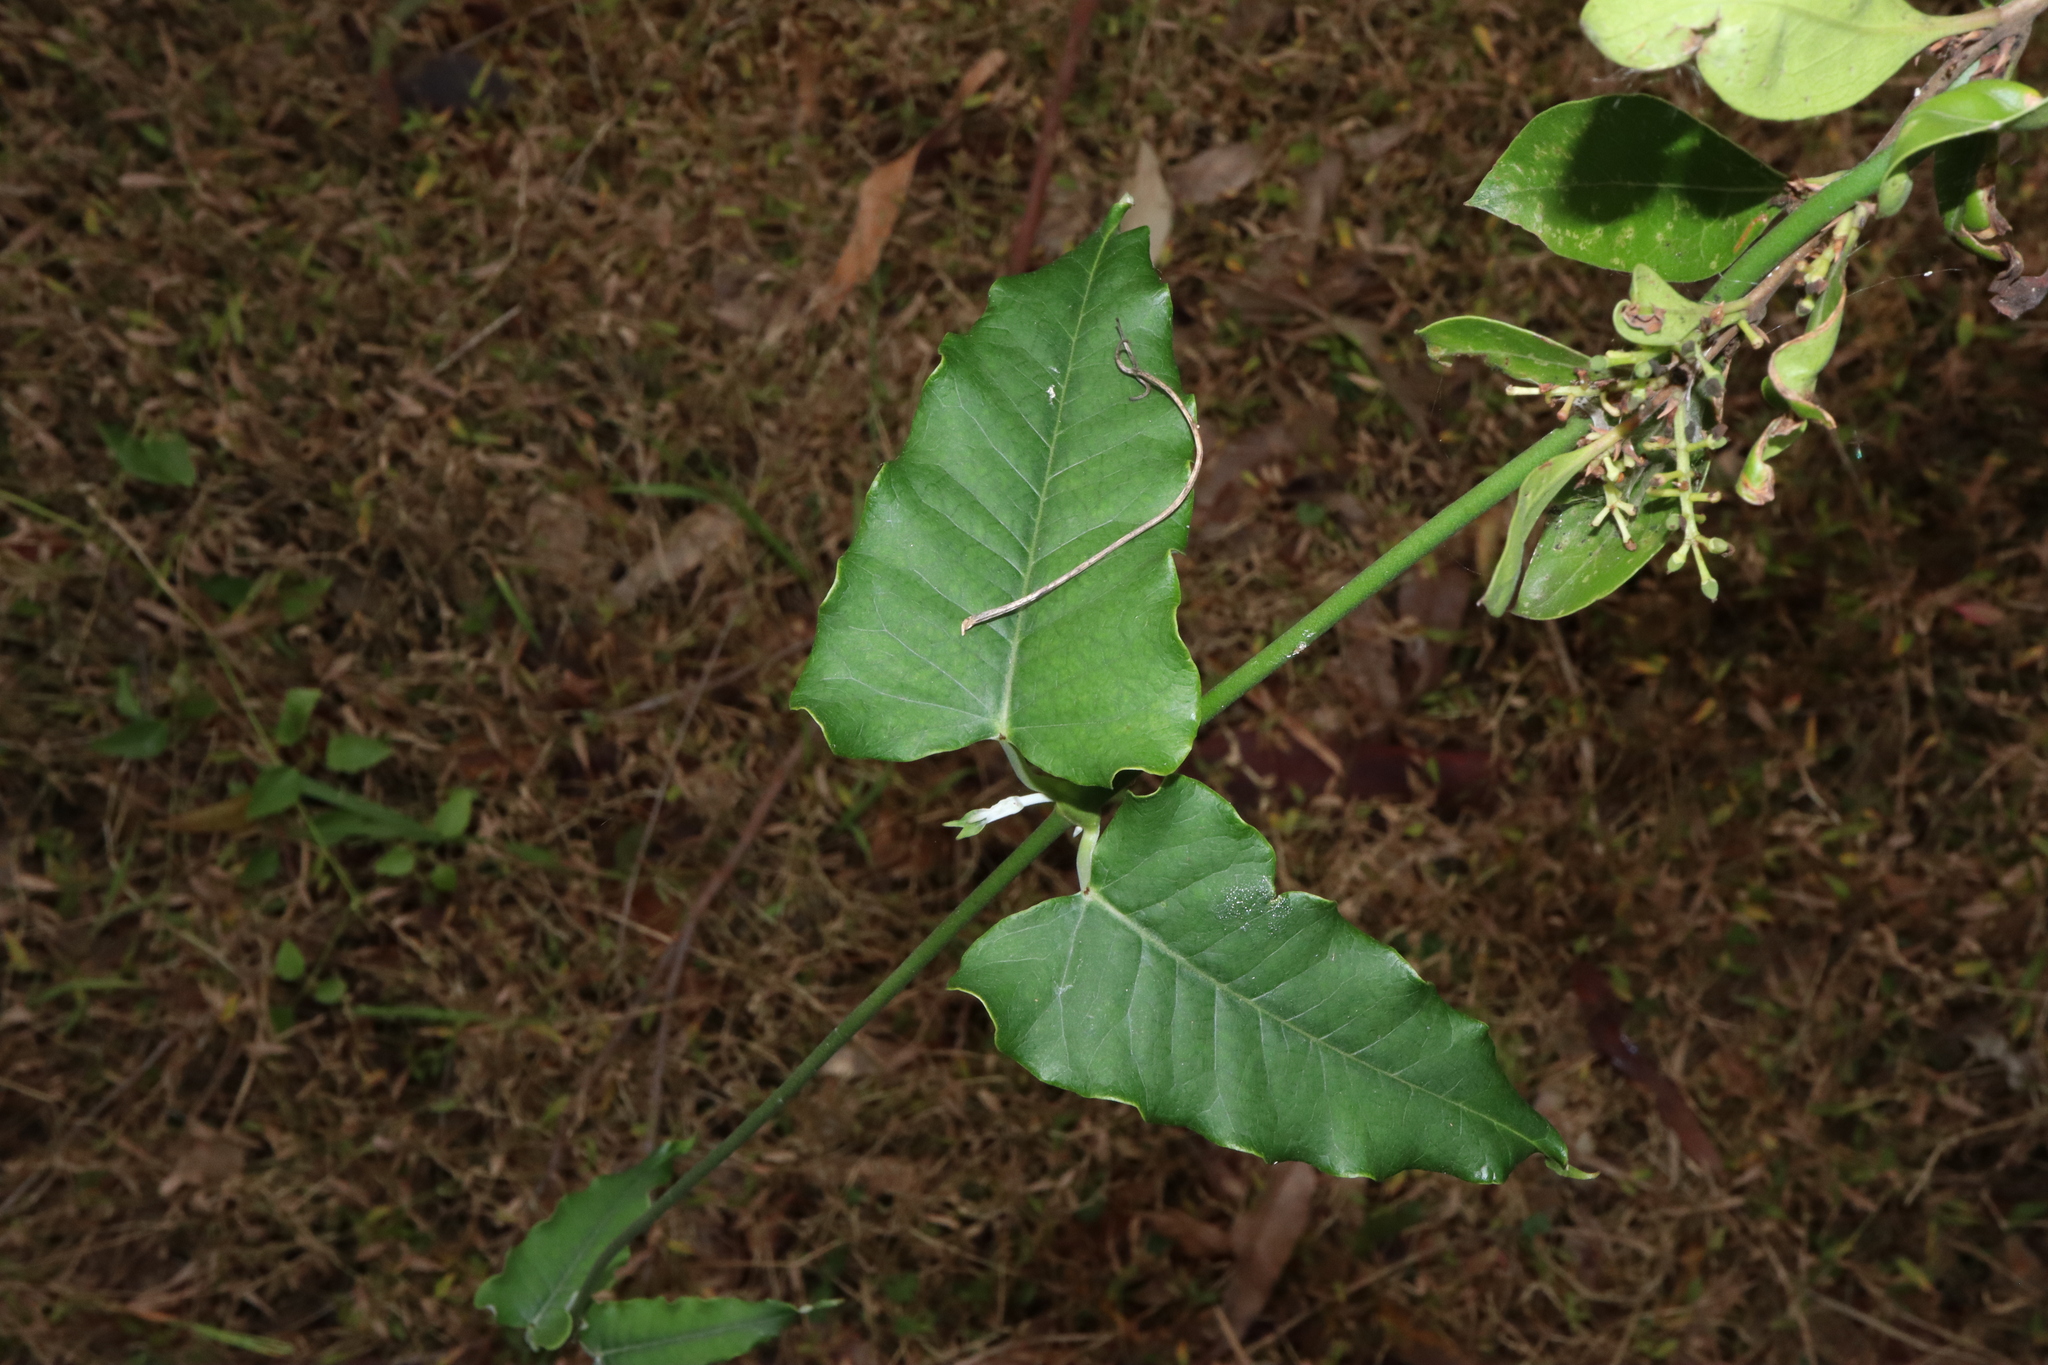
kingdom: Plantae
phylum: Tracheophyta
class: Magnoliopsida
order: Gentianales
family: Apocynaceae
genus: Araujia
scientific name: Araujia sericifera
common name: White bladderflower
